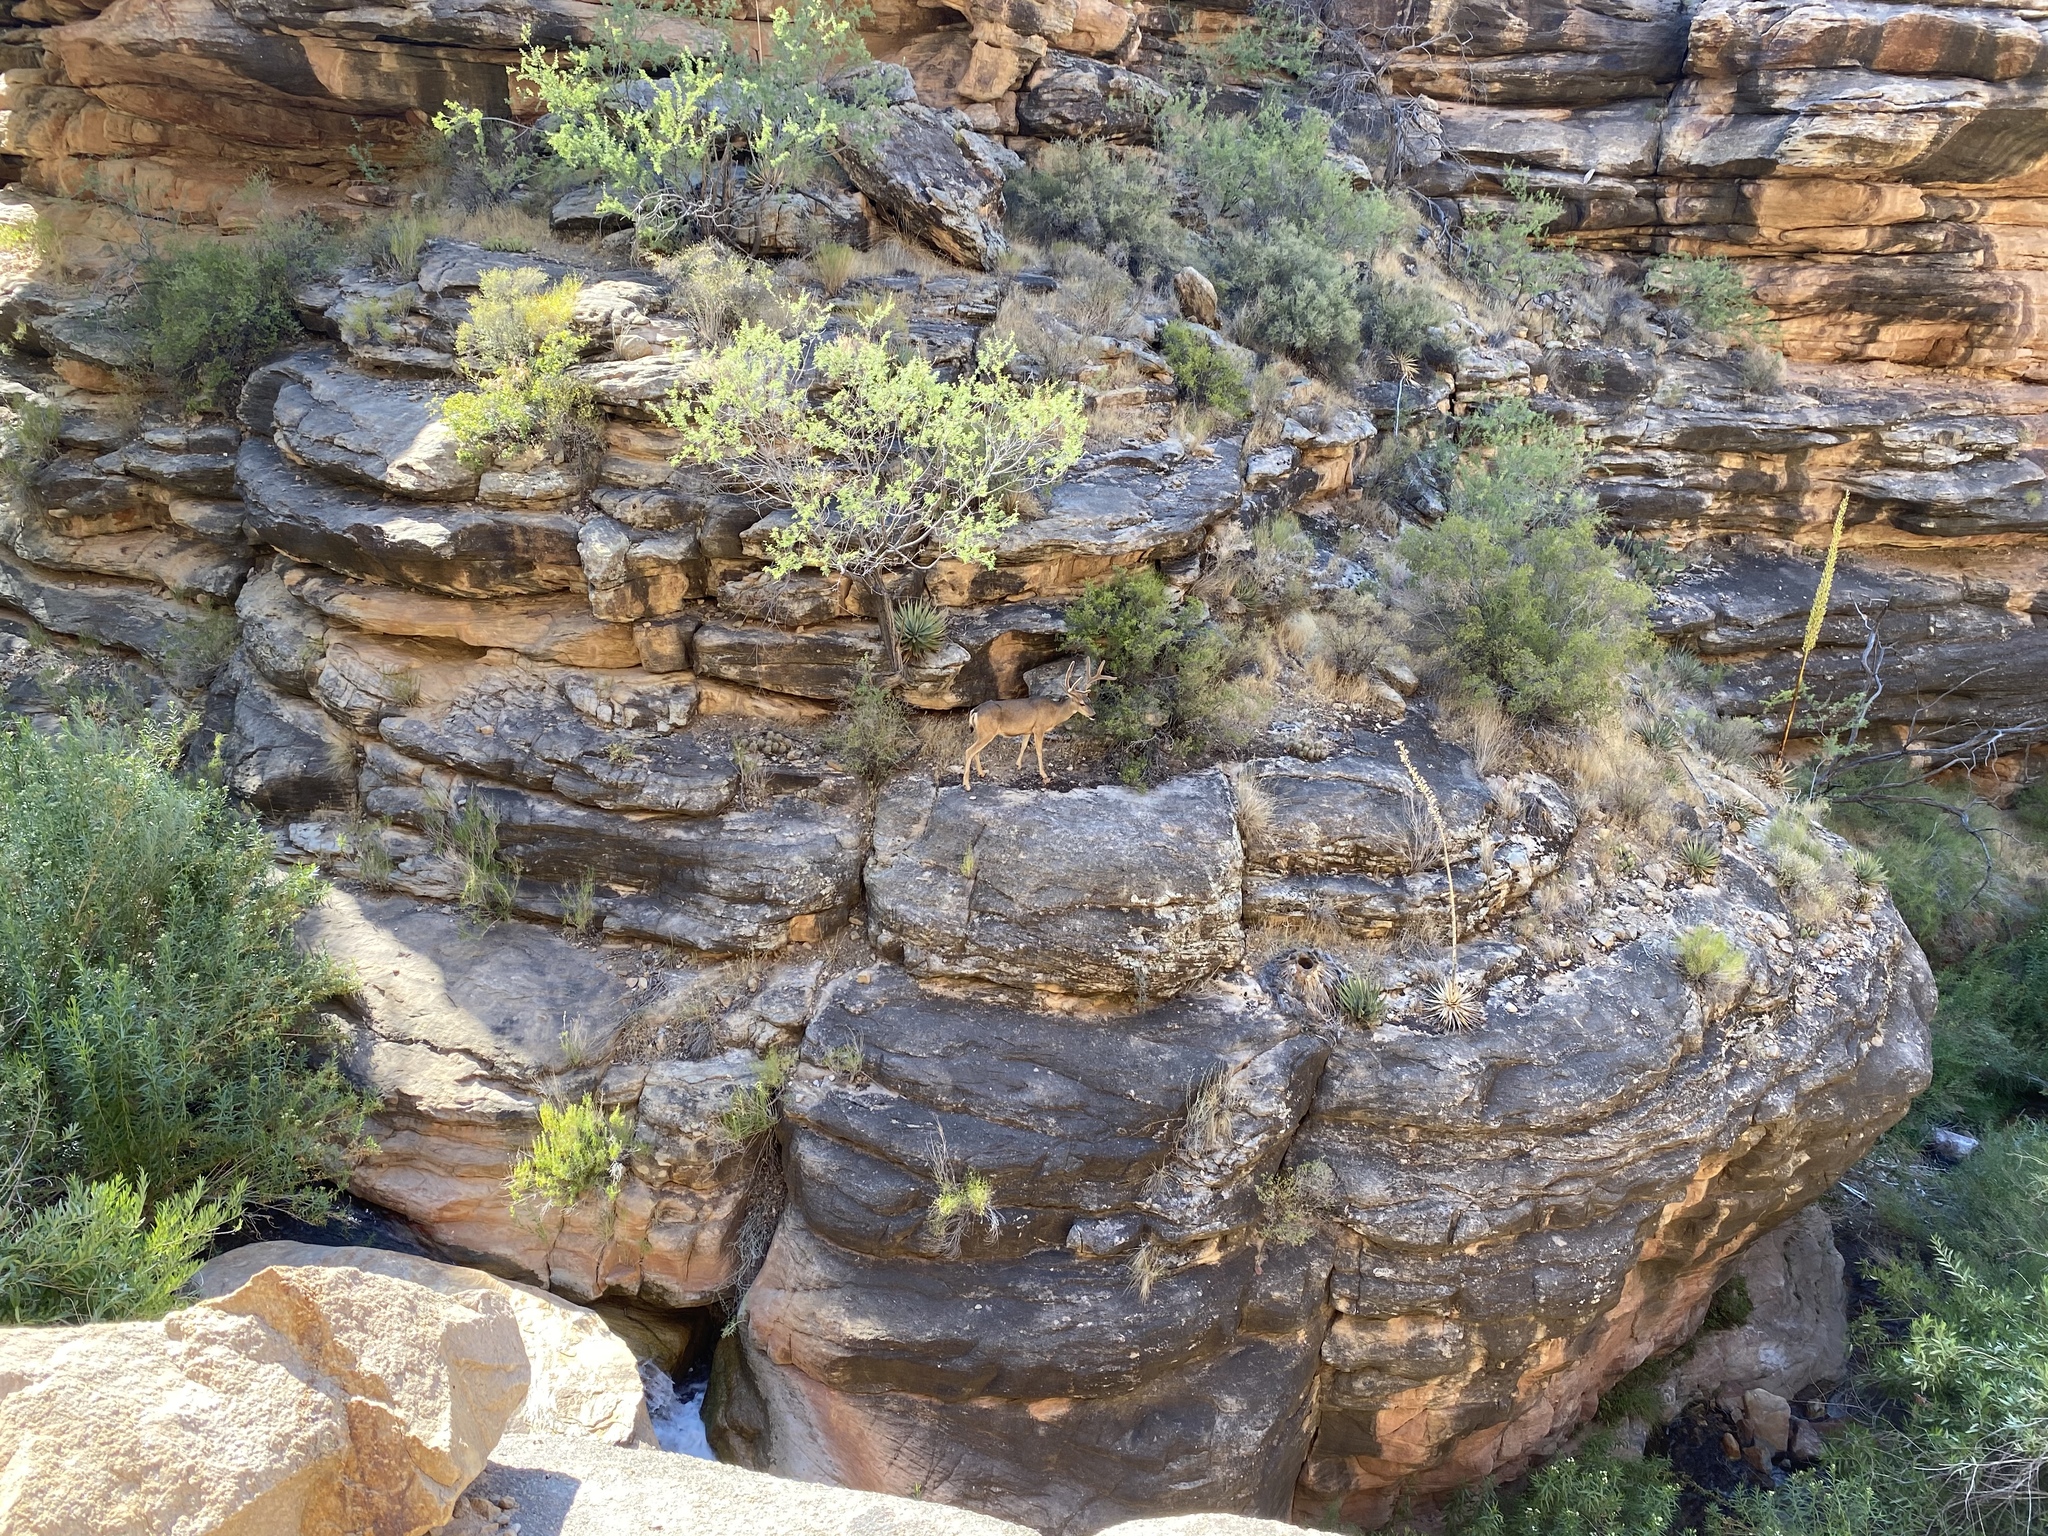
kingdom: Animalia
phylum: Chordata
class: Mammalia
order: Artiodactyla
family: Cervidae
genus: Odocoileus
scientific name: Odocoileus hemionus
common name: Mule deer
